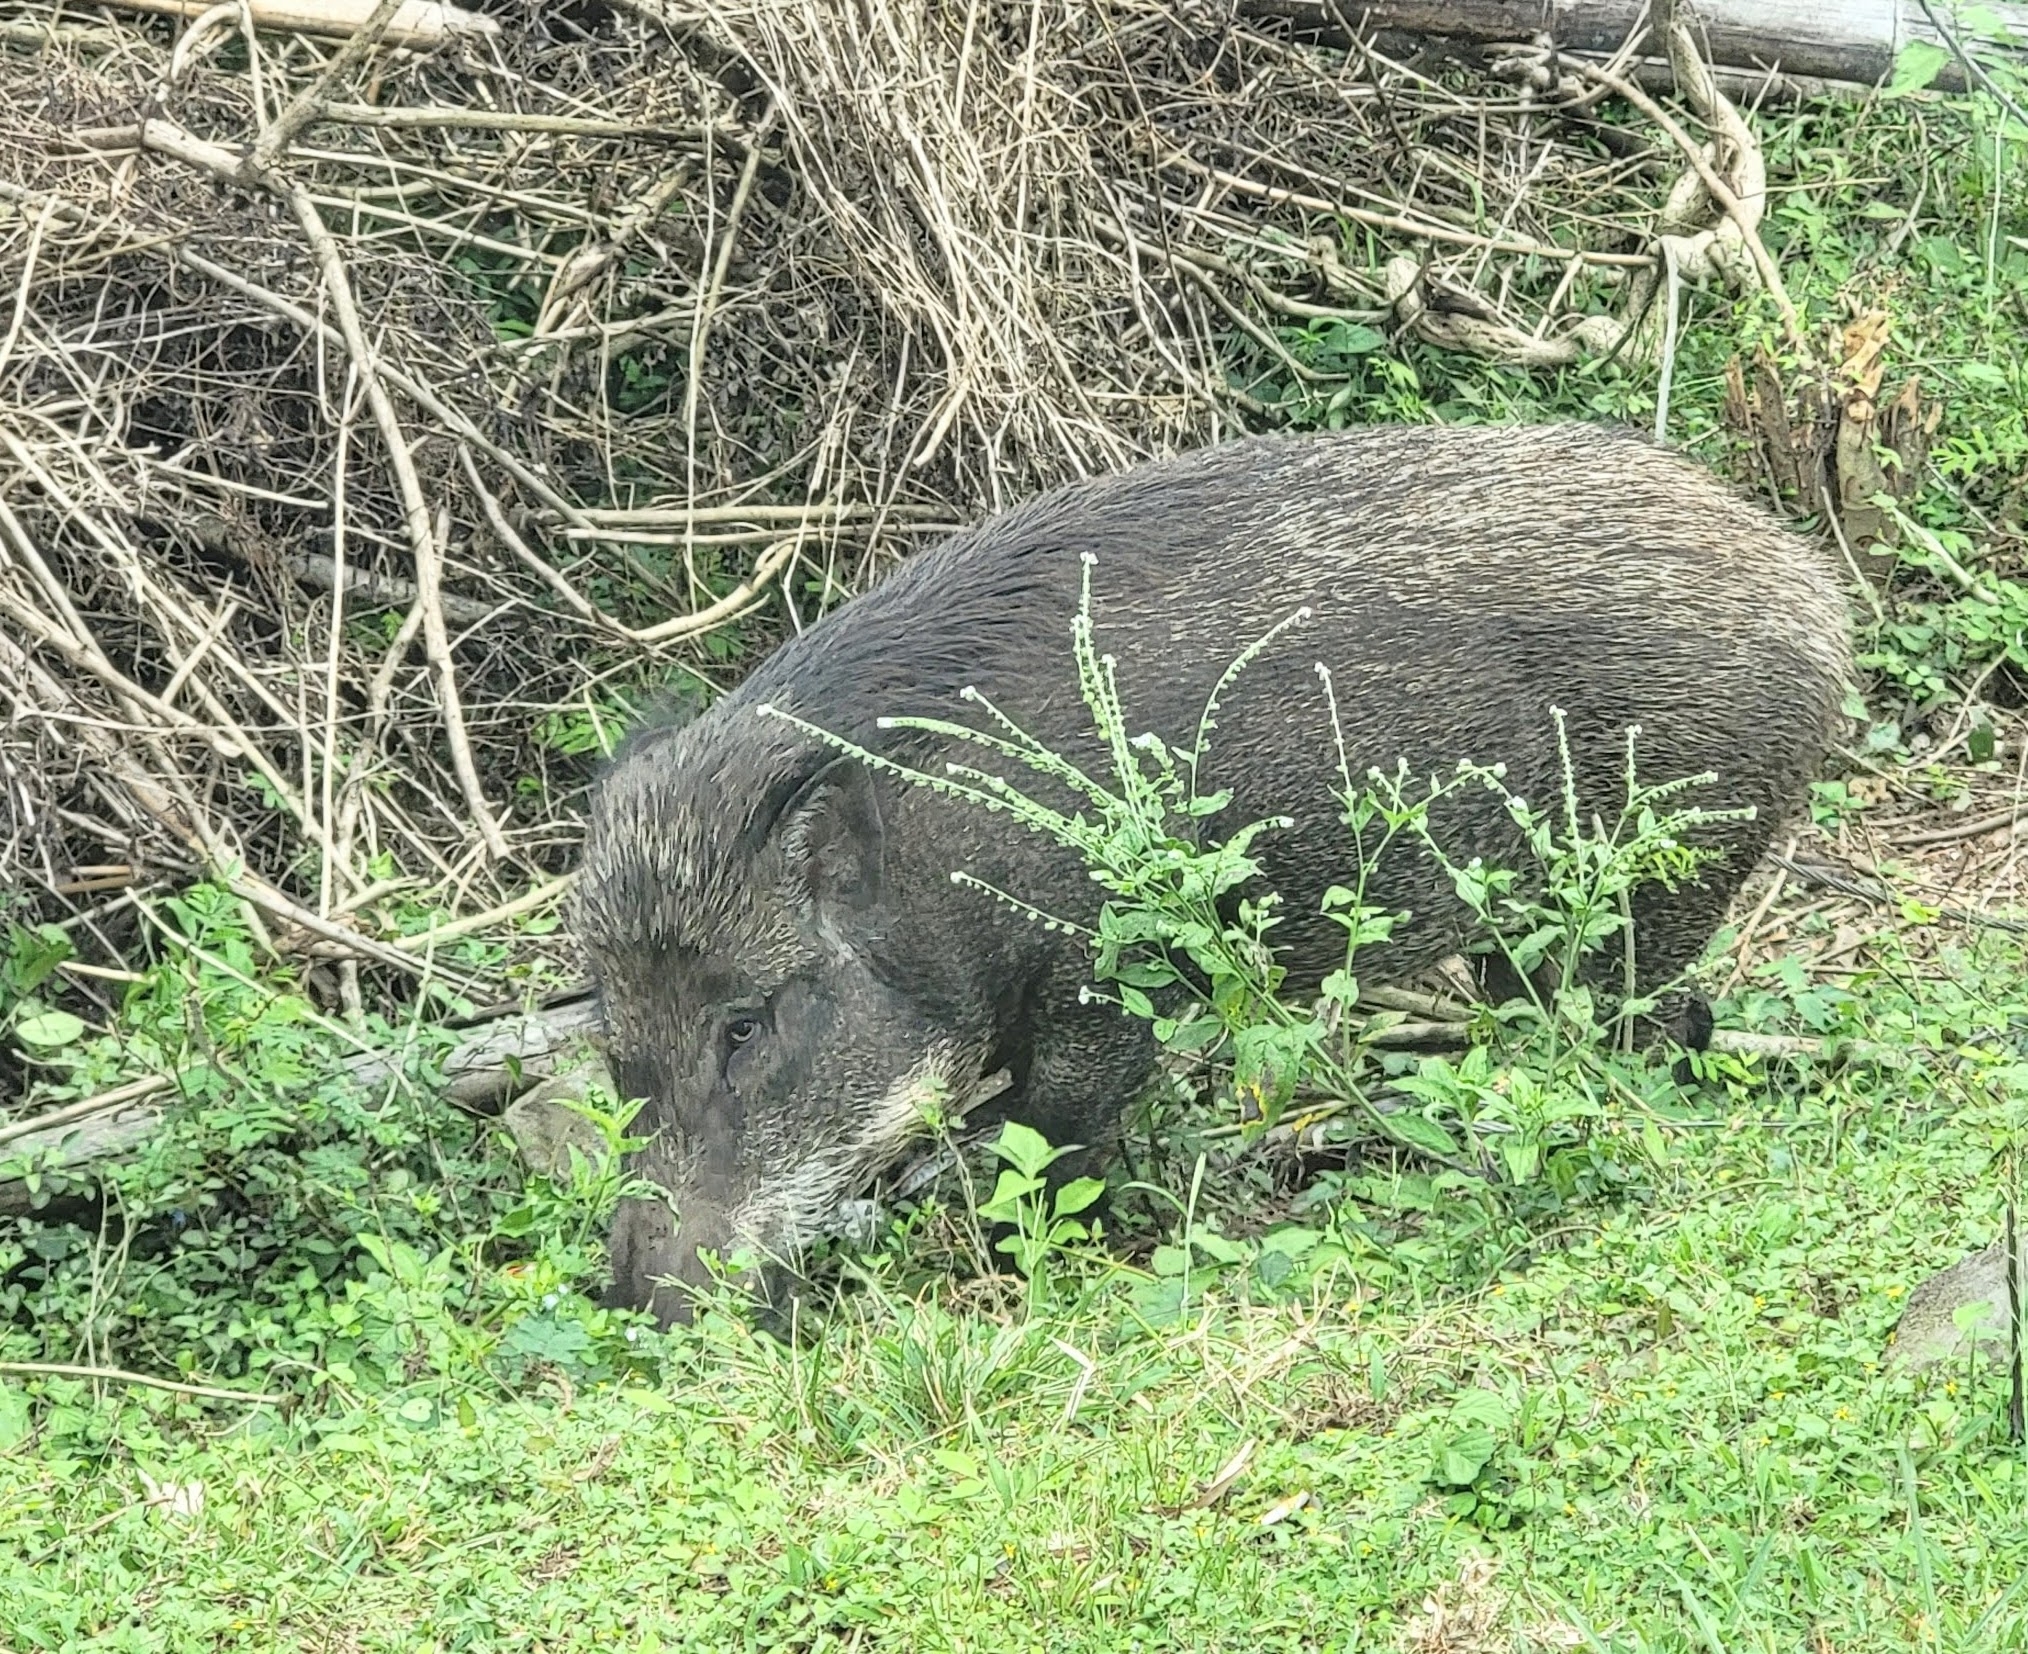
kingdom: Animalia
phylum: Chordata
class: Mammalia
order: Artiodactyla
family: Suidae
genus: Sus
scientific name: Sus scrofa
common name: Wild boar
